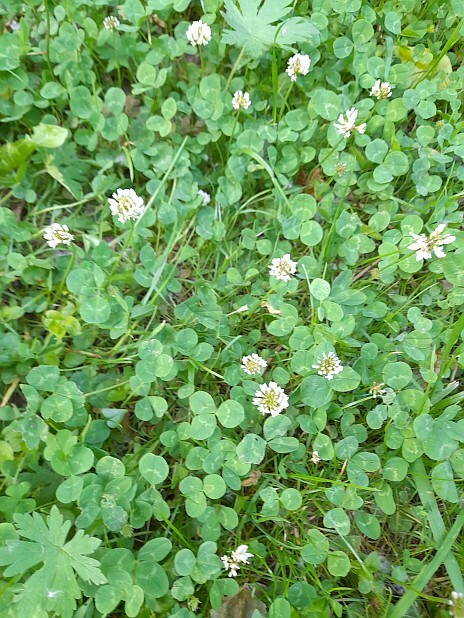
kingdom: Plantae
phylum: Tracheophyta
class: Magnoliopsida
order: Fabales
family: Fabaceae
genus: Trifolium
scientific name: Trifolium repens
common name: White clover
